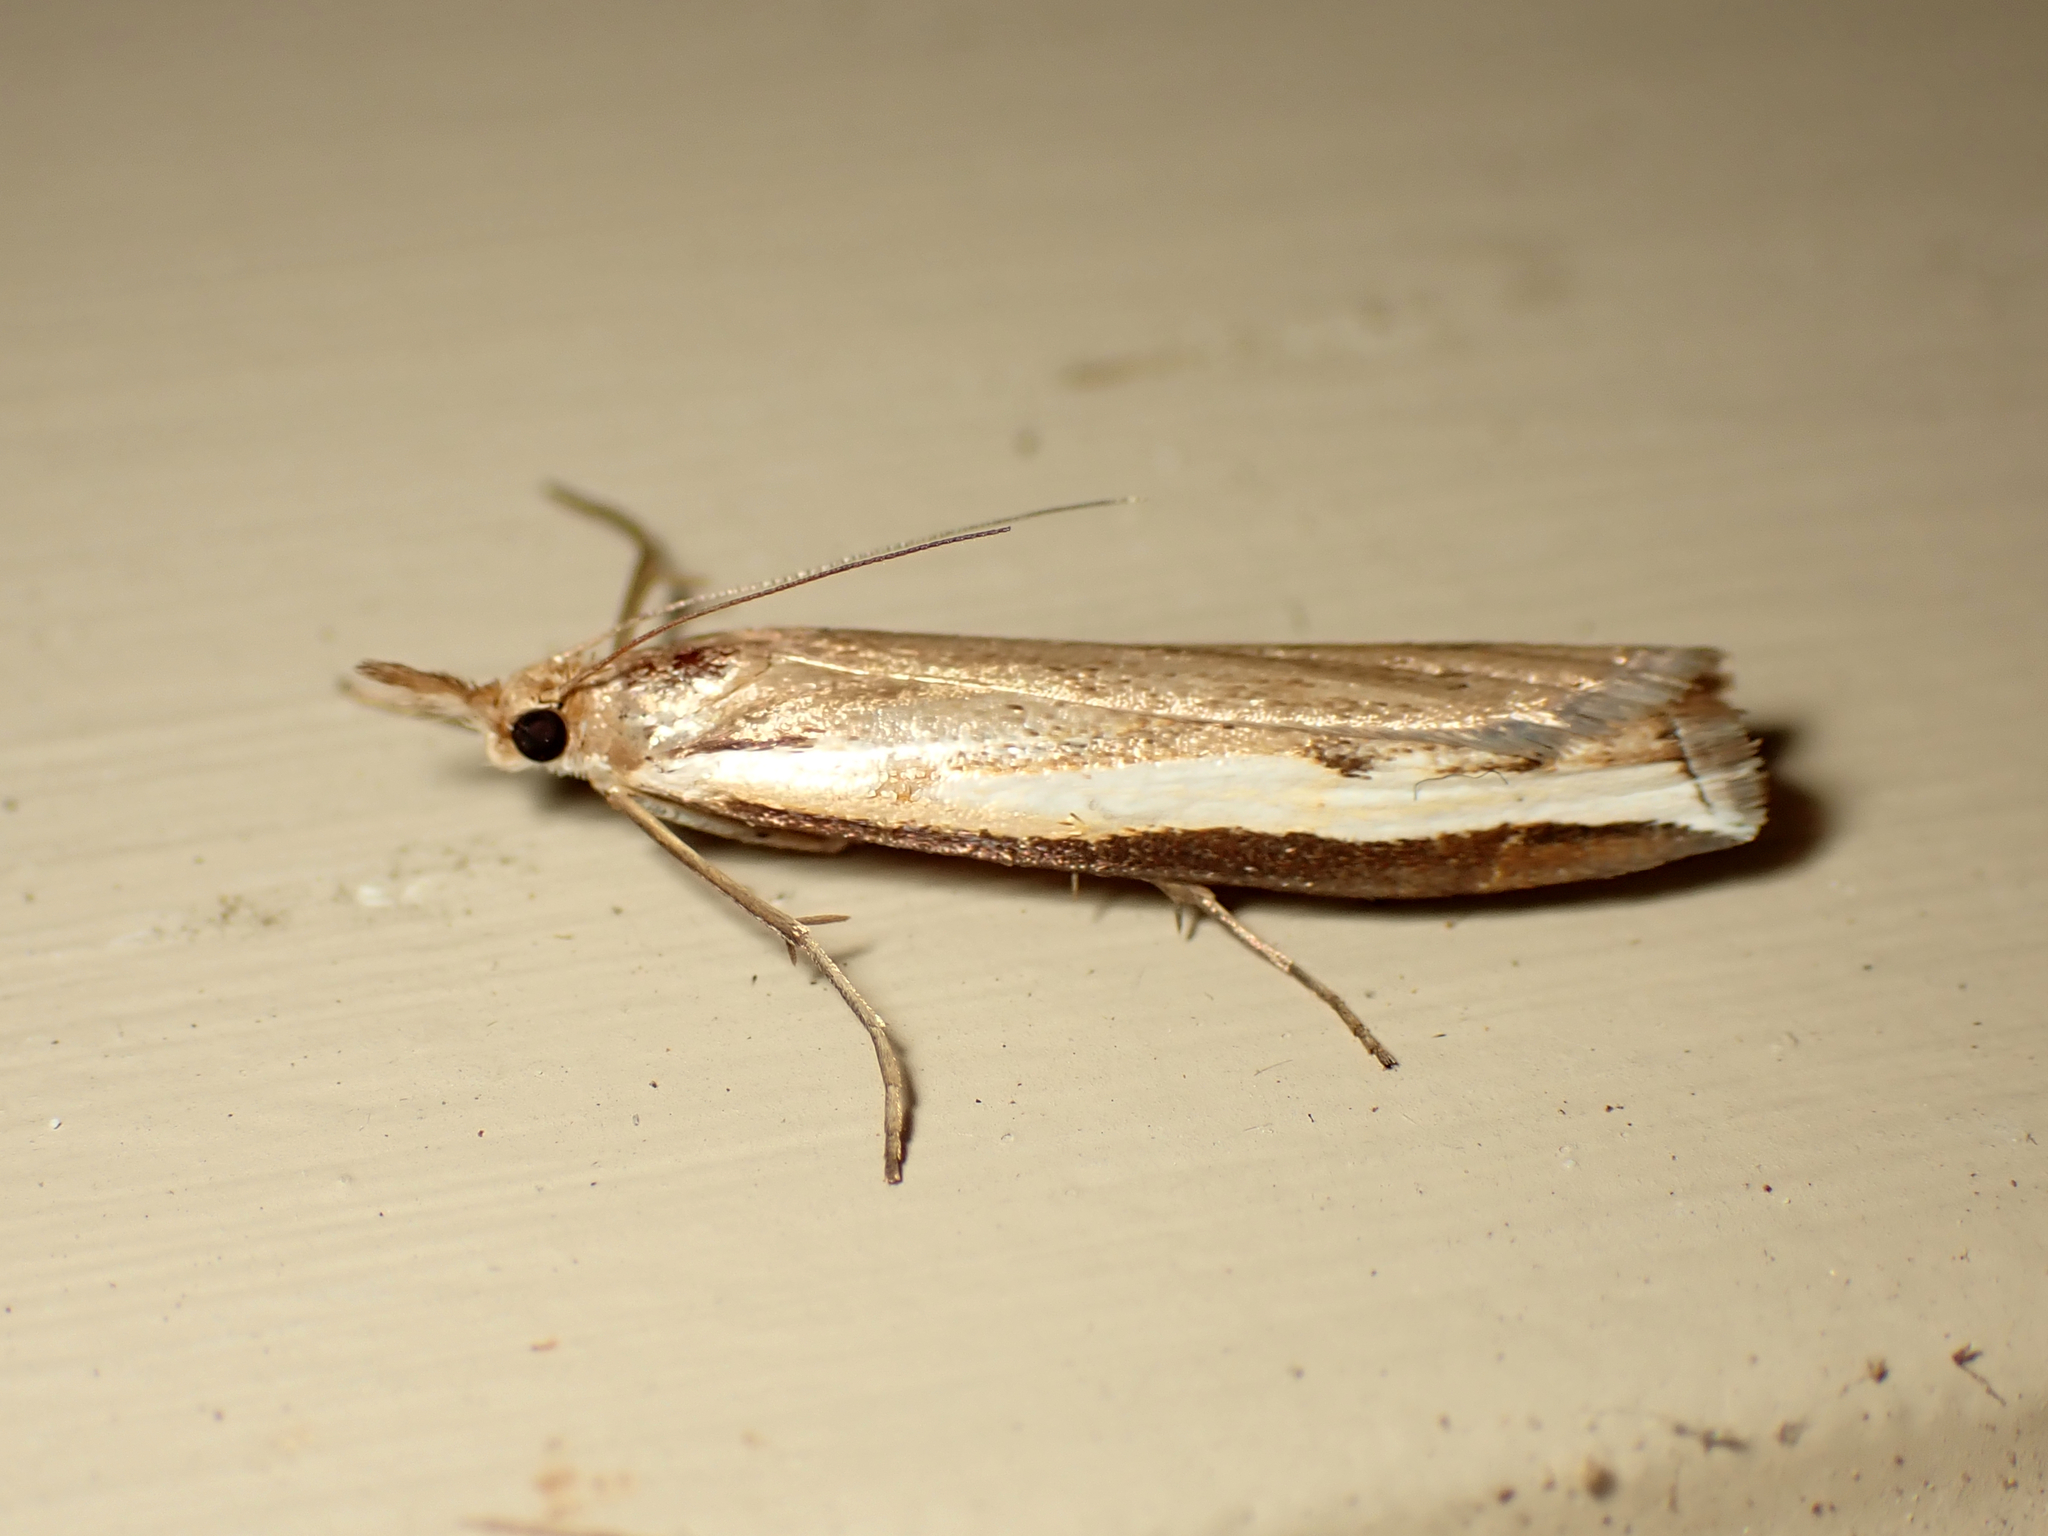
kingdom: Animalia
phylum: Arthropoda
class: Insecta
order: Lepidoptera
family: Crambidae
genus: Orocrambus
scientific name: Orocrambus flexuosellus
